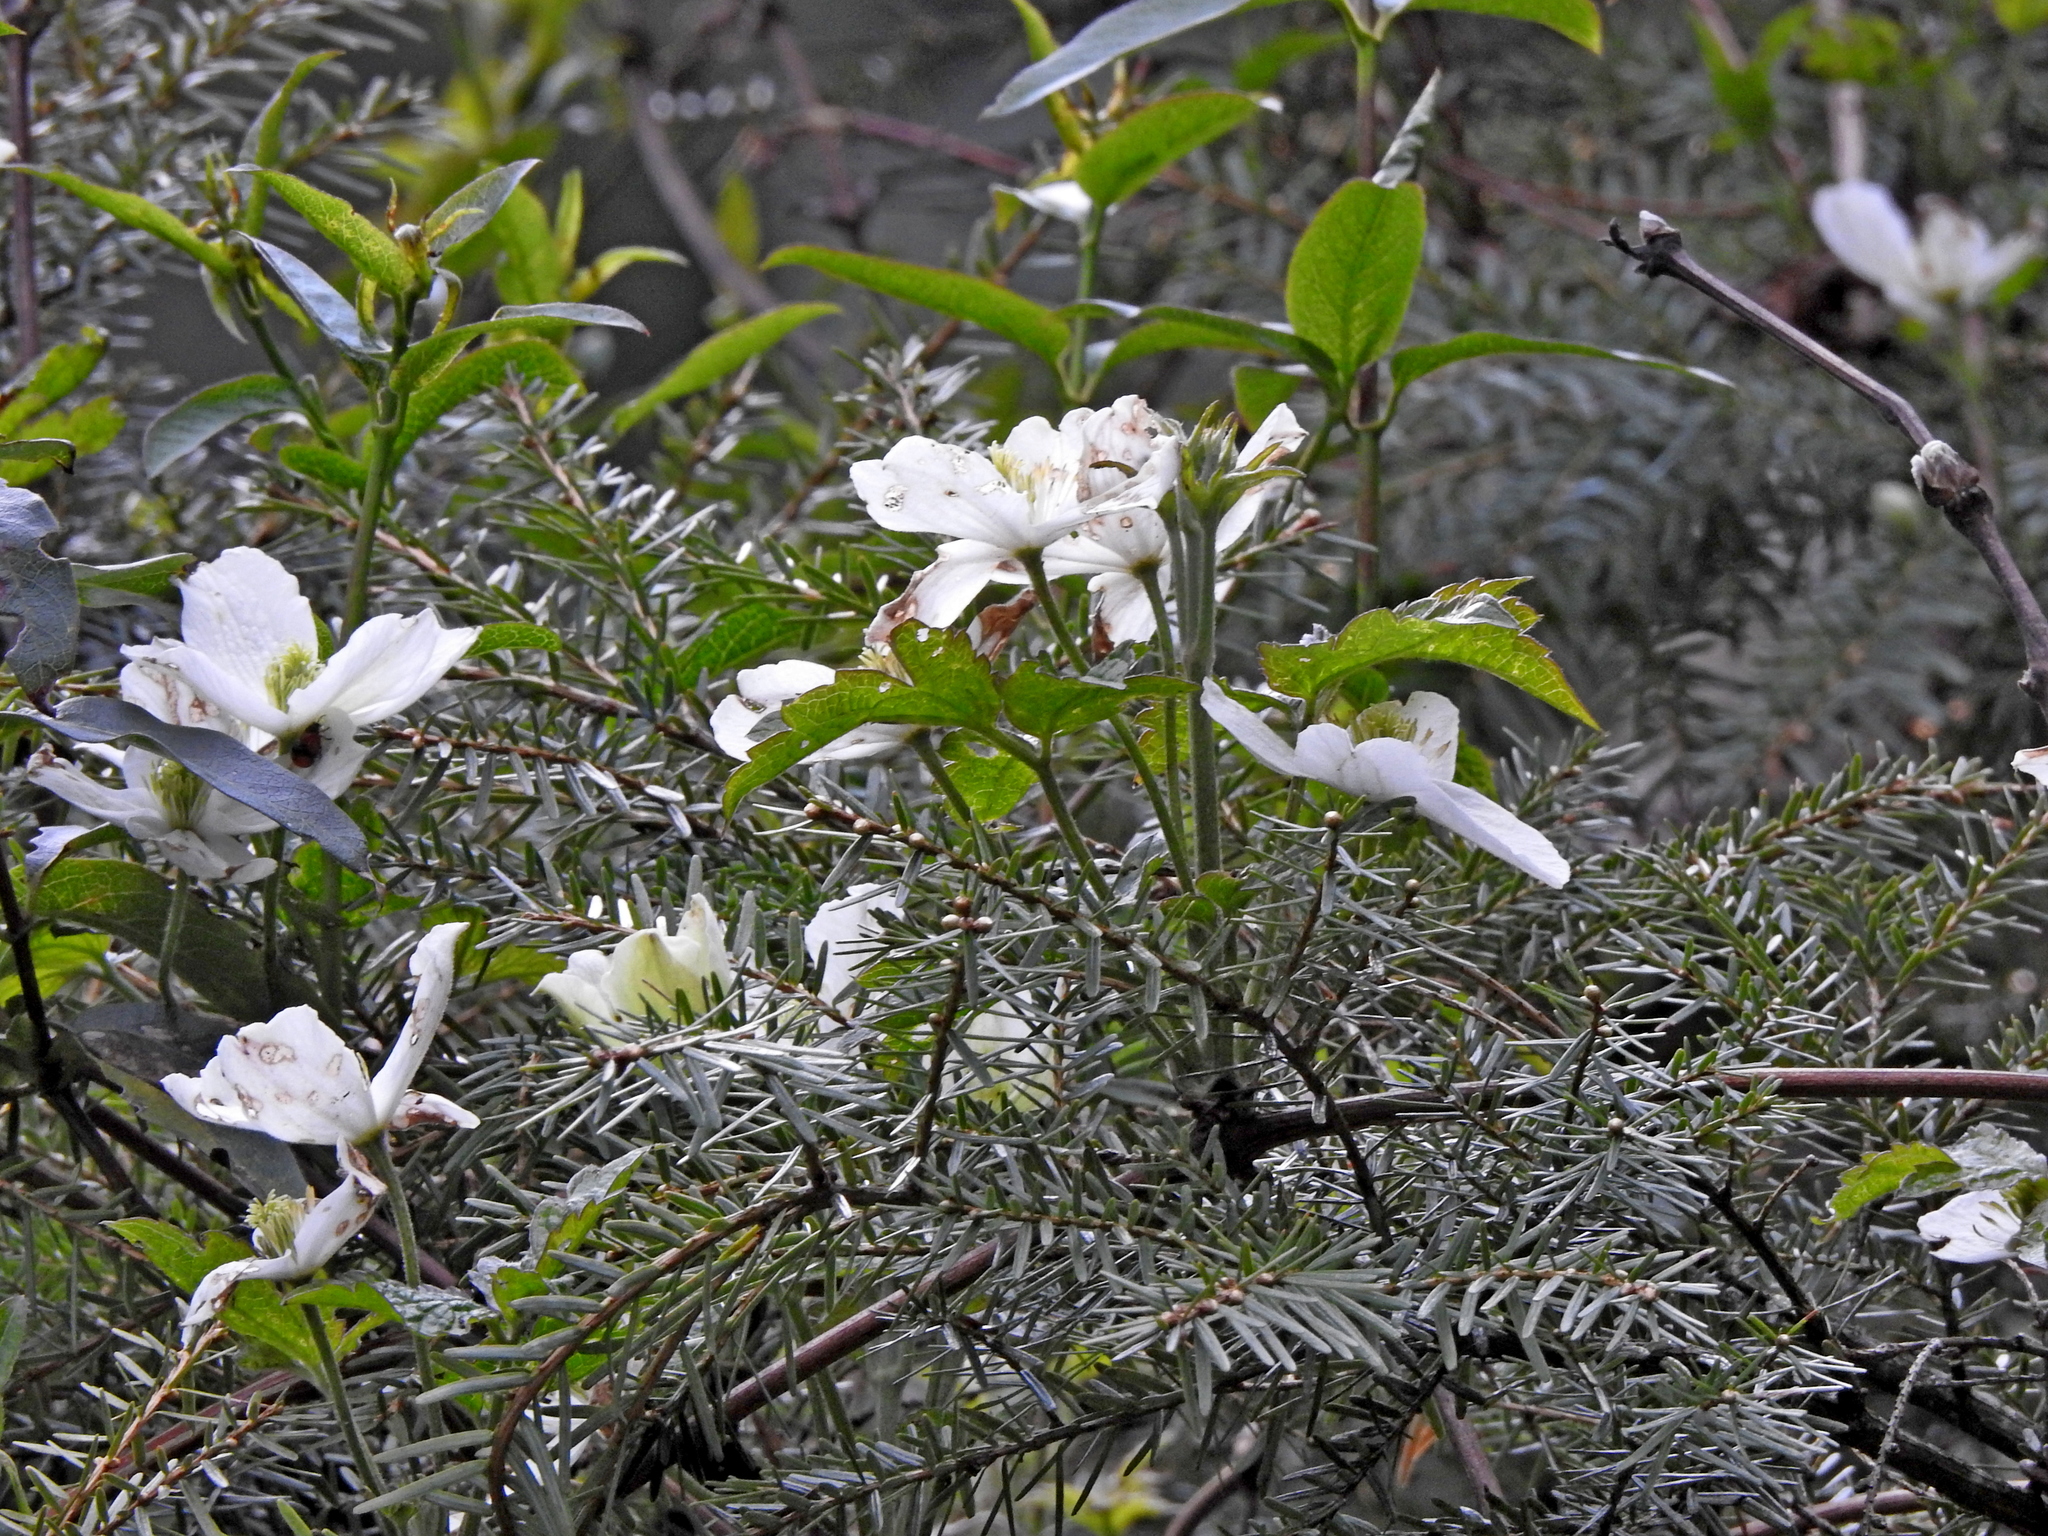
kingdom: Plantae
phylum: Tracheophyta
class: Magnoliopsida
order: Ranunculales
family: Ranunculaceae
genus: Clematis
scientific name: Clematis montana
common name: Himalayan clematis
